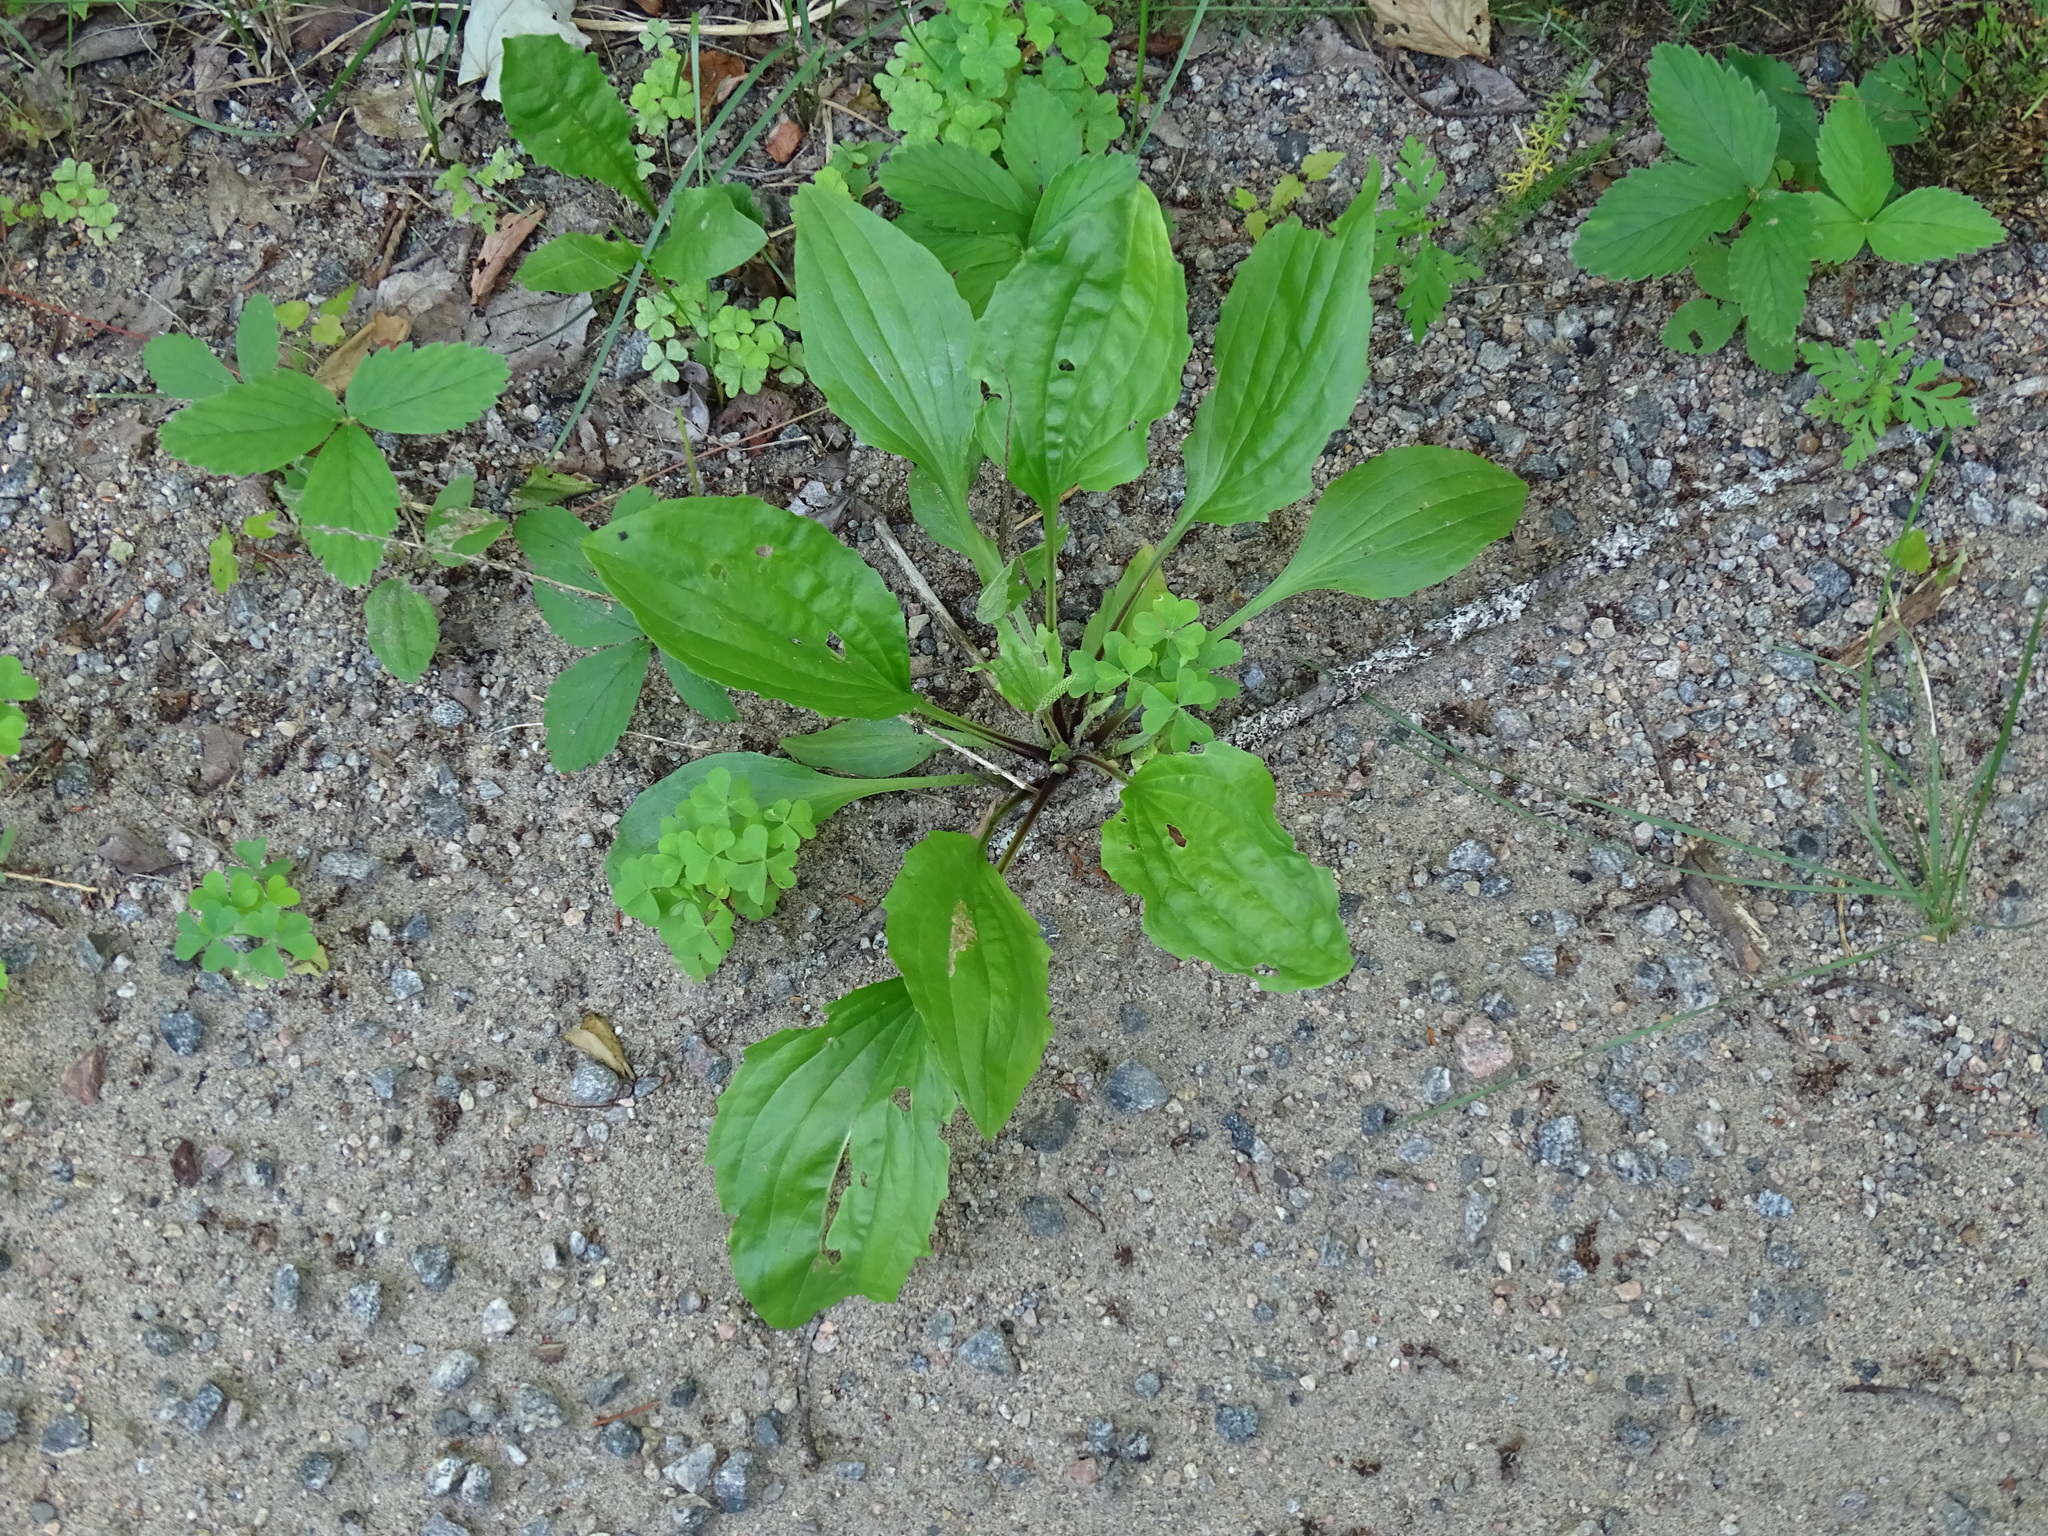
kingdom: Plantae
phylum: Tracheophyta
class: Magnoliopsida
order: Lamiales
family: Plantaginaceae
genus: Plantago
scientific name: Plantago rugelii
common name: American plantain
